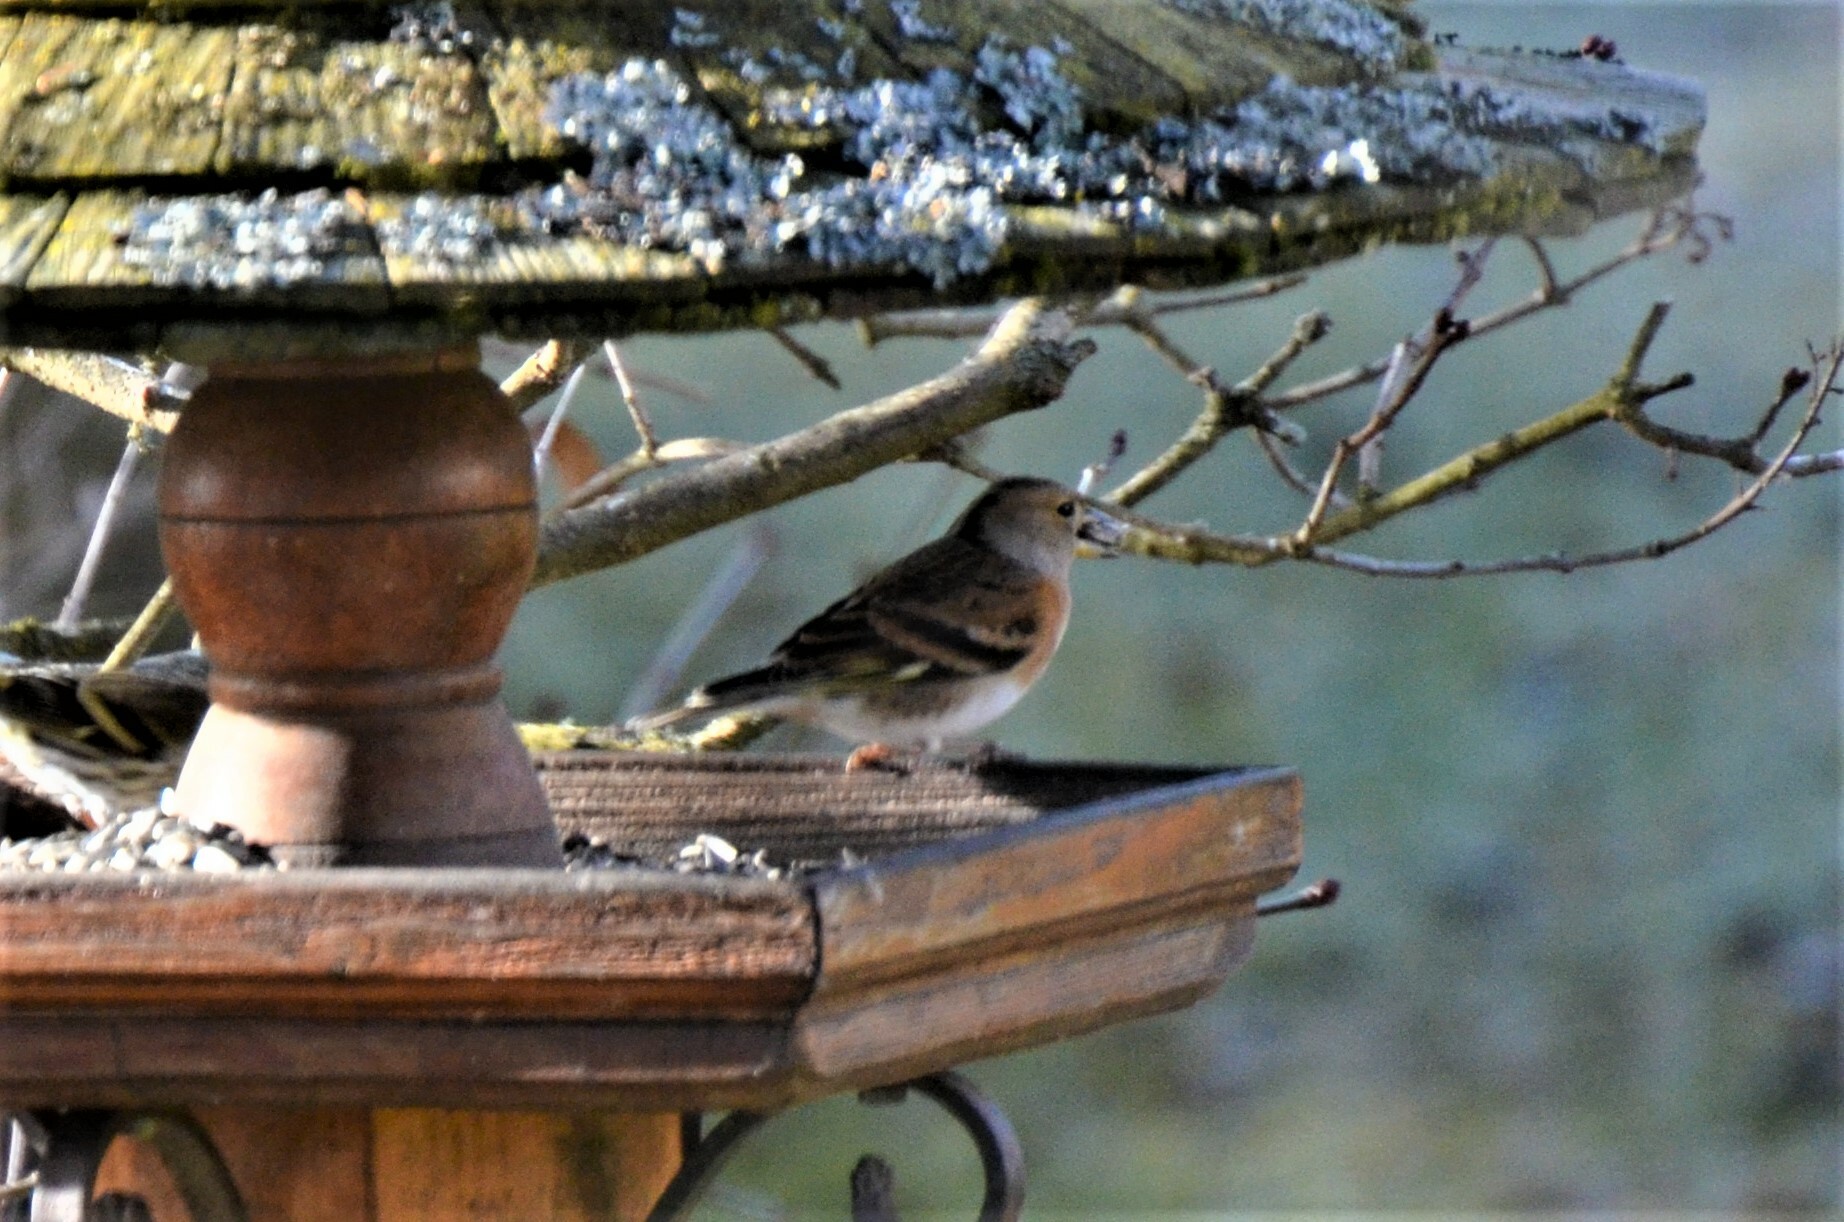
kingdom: Animalia
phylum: Chordata
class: Aves
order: Passeriformes
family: Fringillidae
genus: Fringilla
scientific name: Fringilla montifringilla
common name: Brambling
